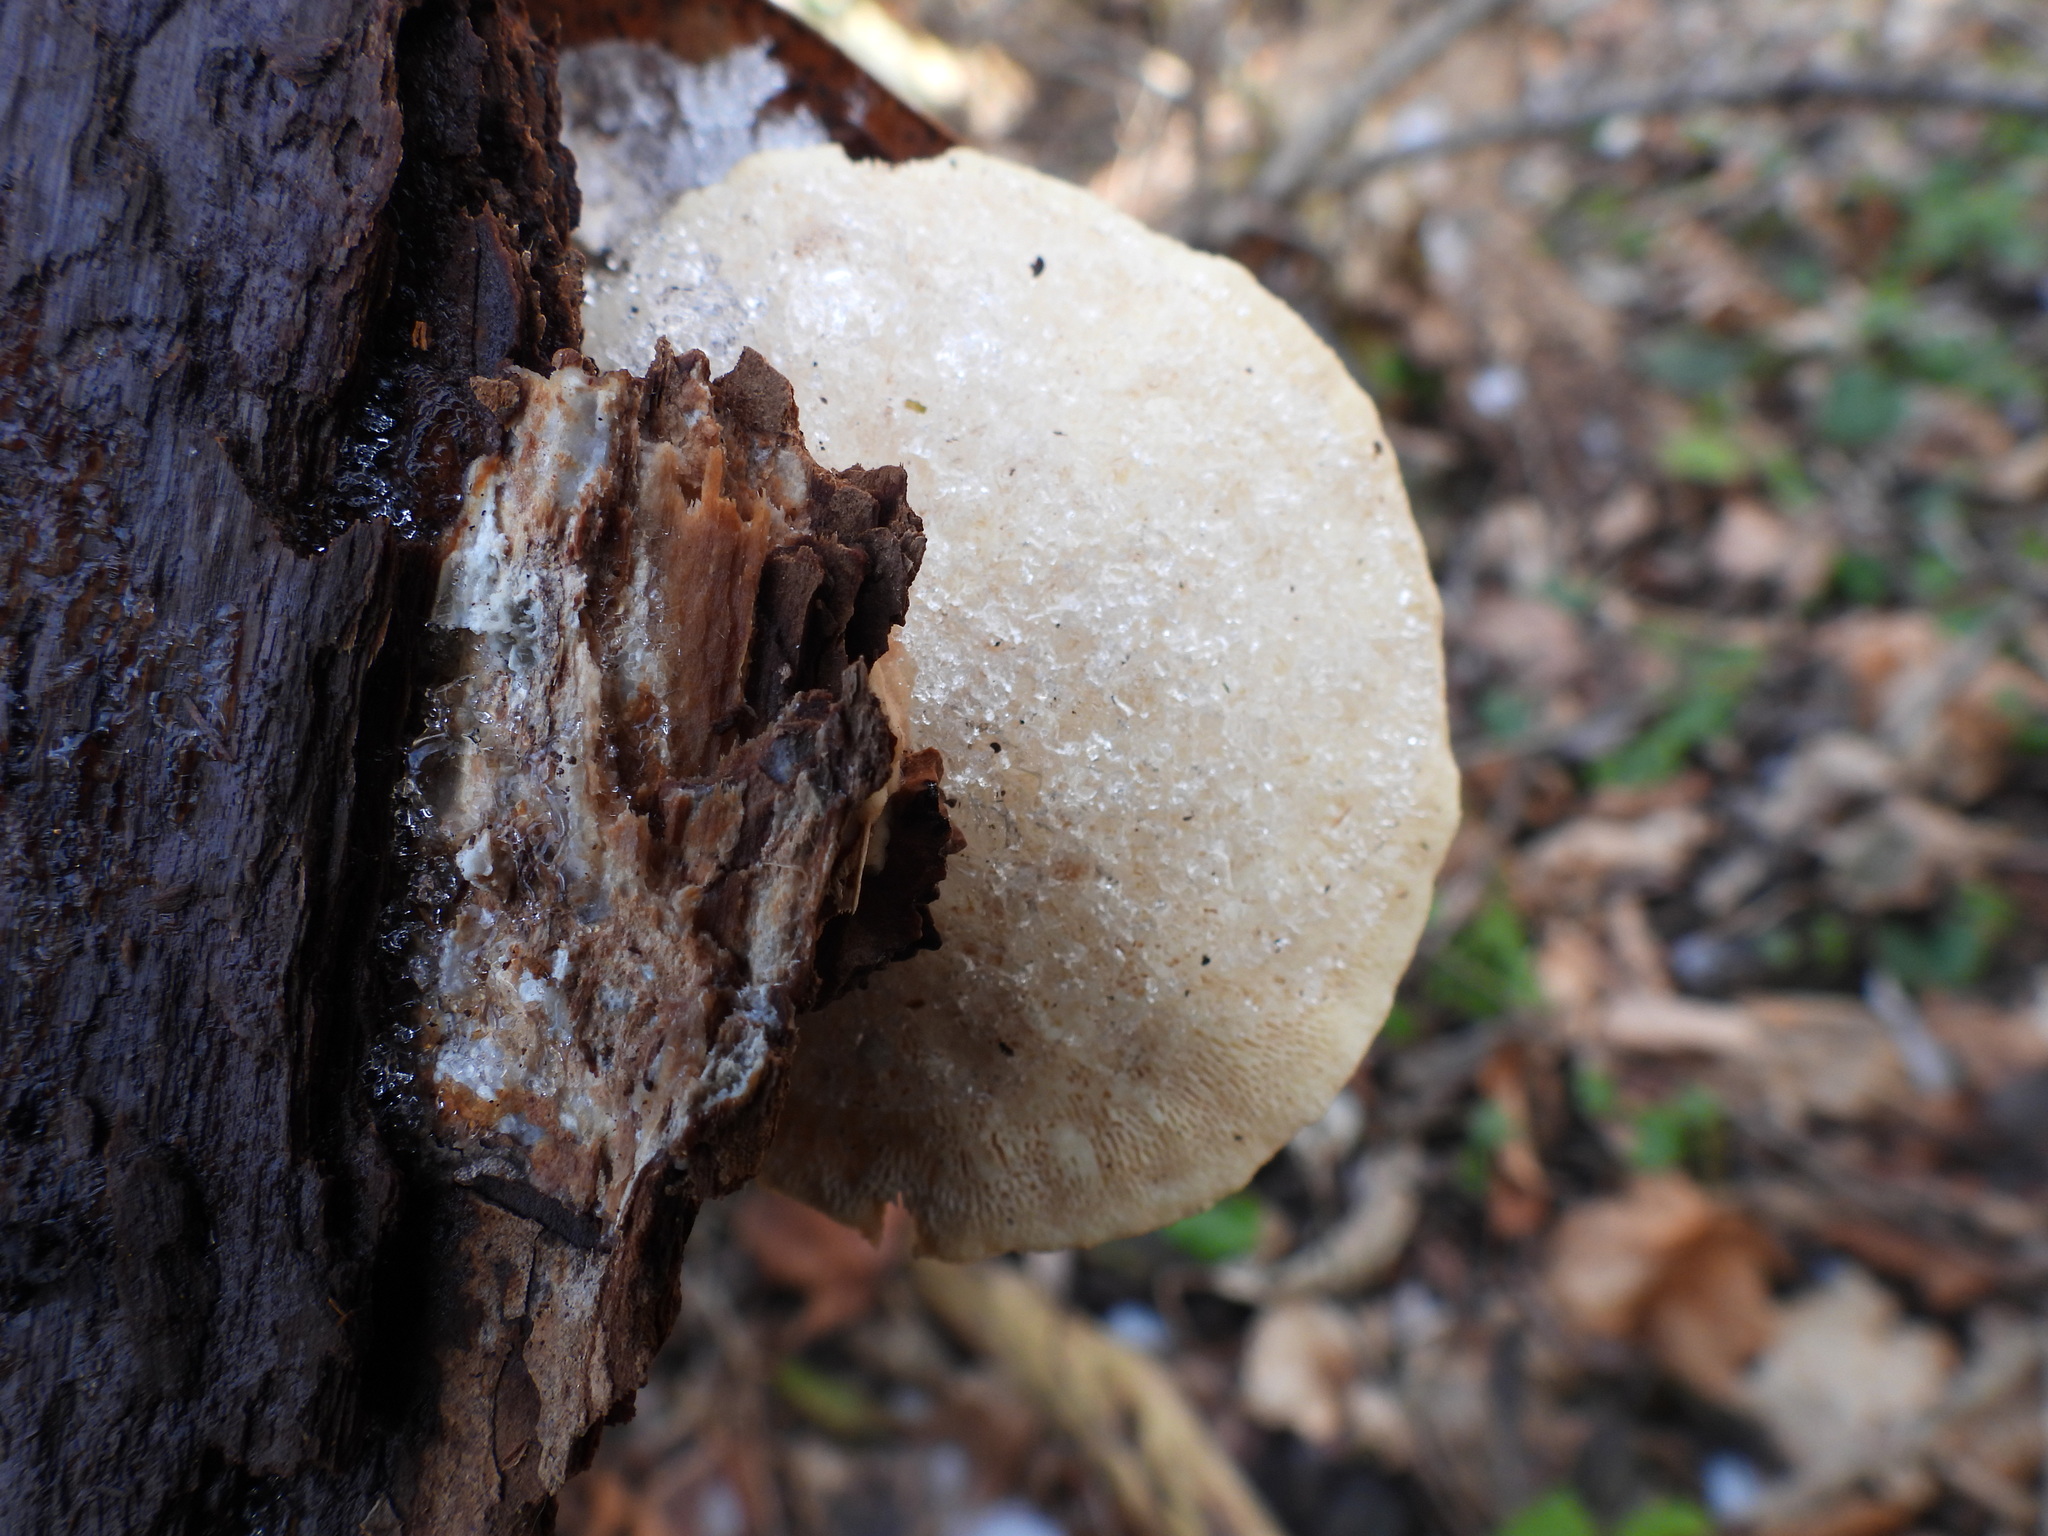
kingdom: Fungi
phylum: Basidiomycota
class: Agaricomycetes
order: Polyporales
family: Polyporaceae
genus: Trametes
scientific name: Trametes gibbosa
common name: Lumpy bracket
